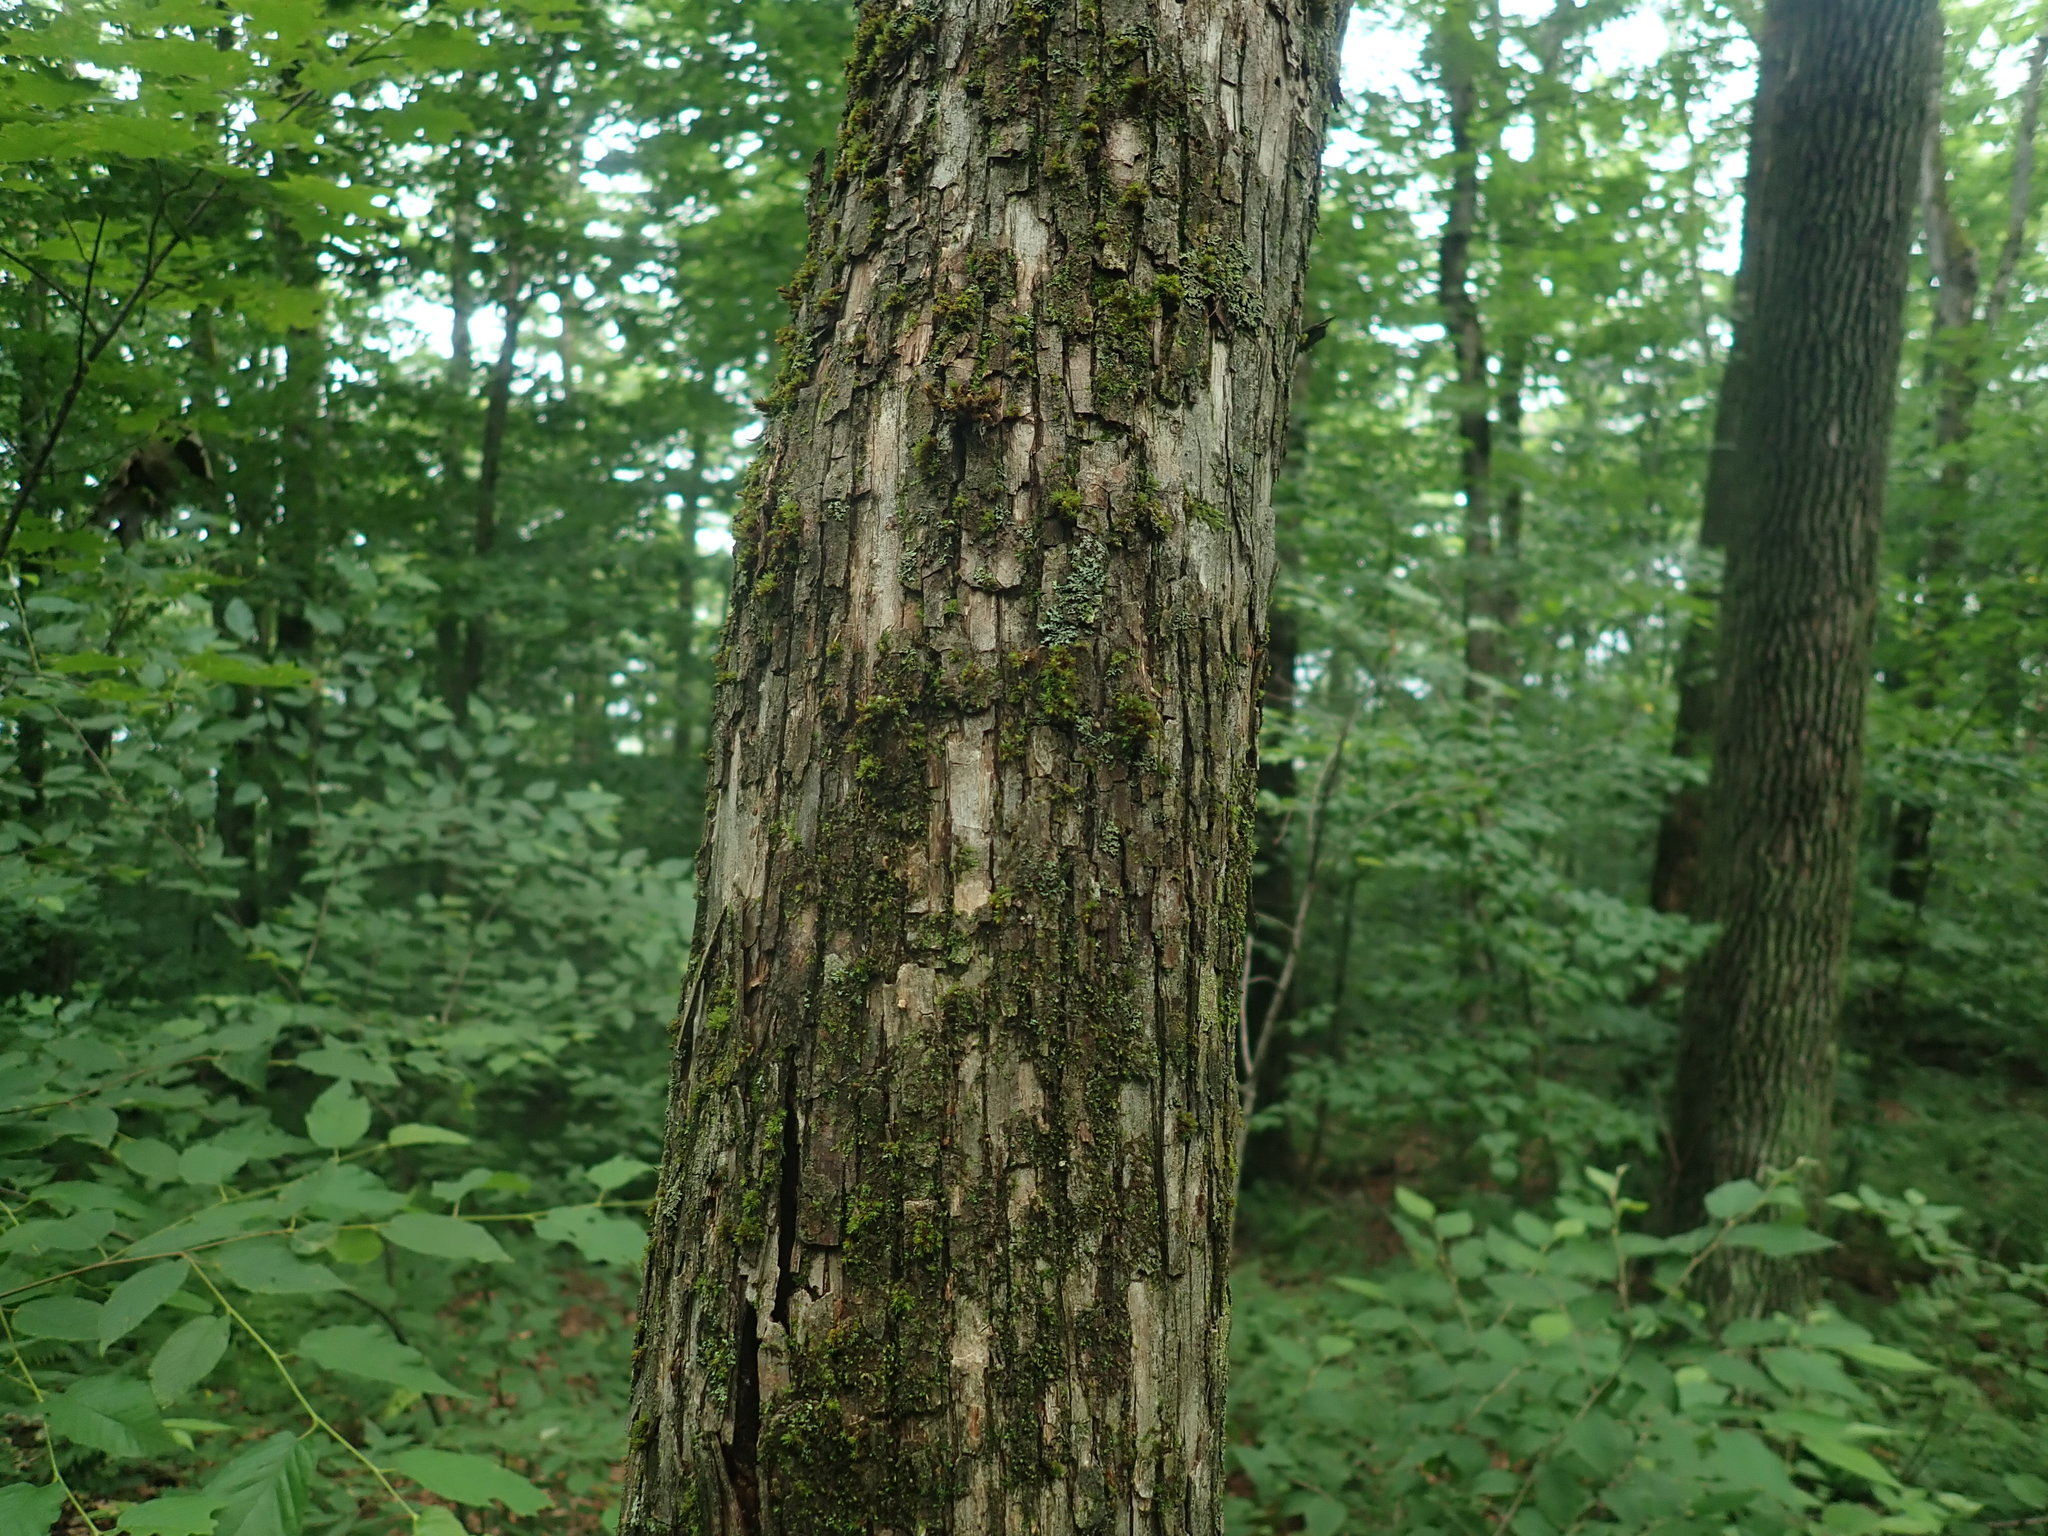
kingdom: Plantae
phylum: Tracheophyta
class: Magnoliopsida
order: Fagales
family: Betulaceae
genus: Ostrya
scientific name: Ostrya virginiana
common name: Ironwood
